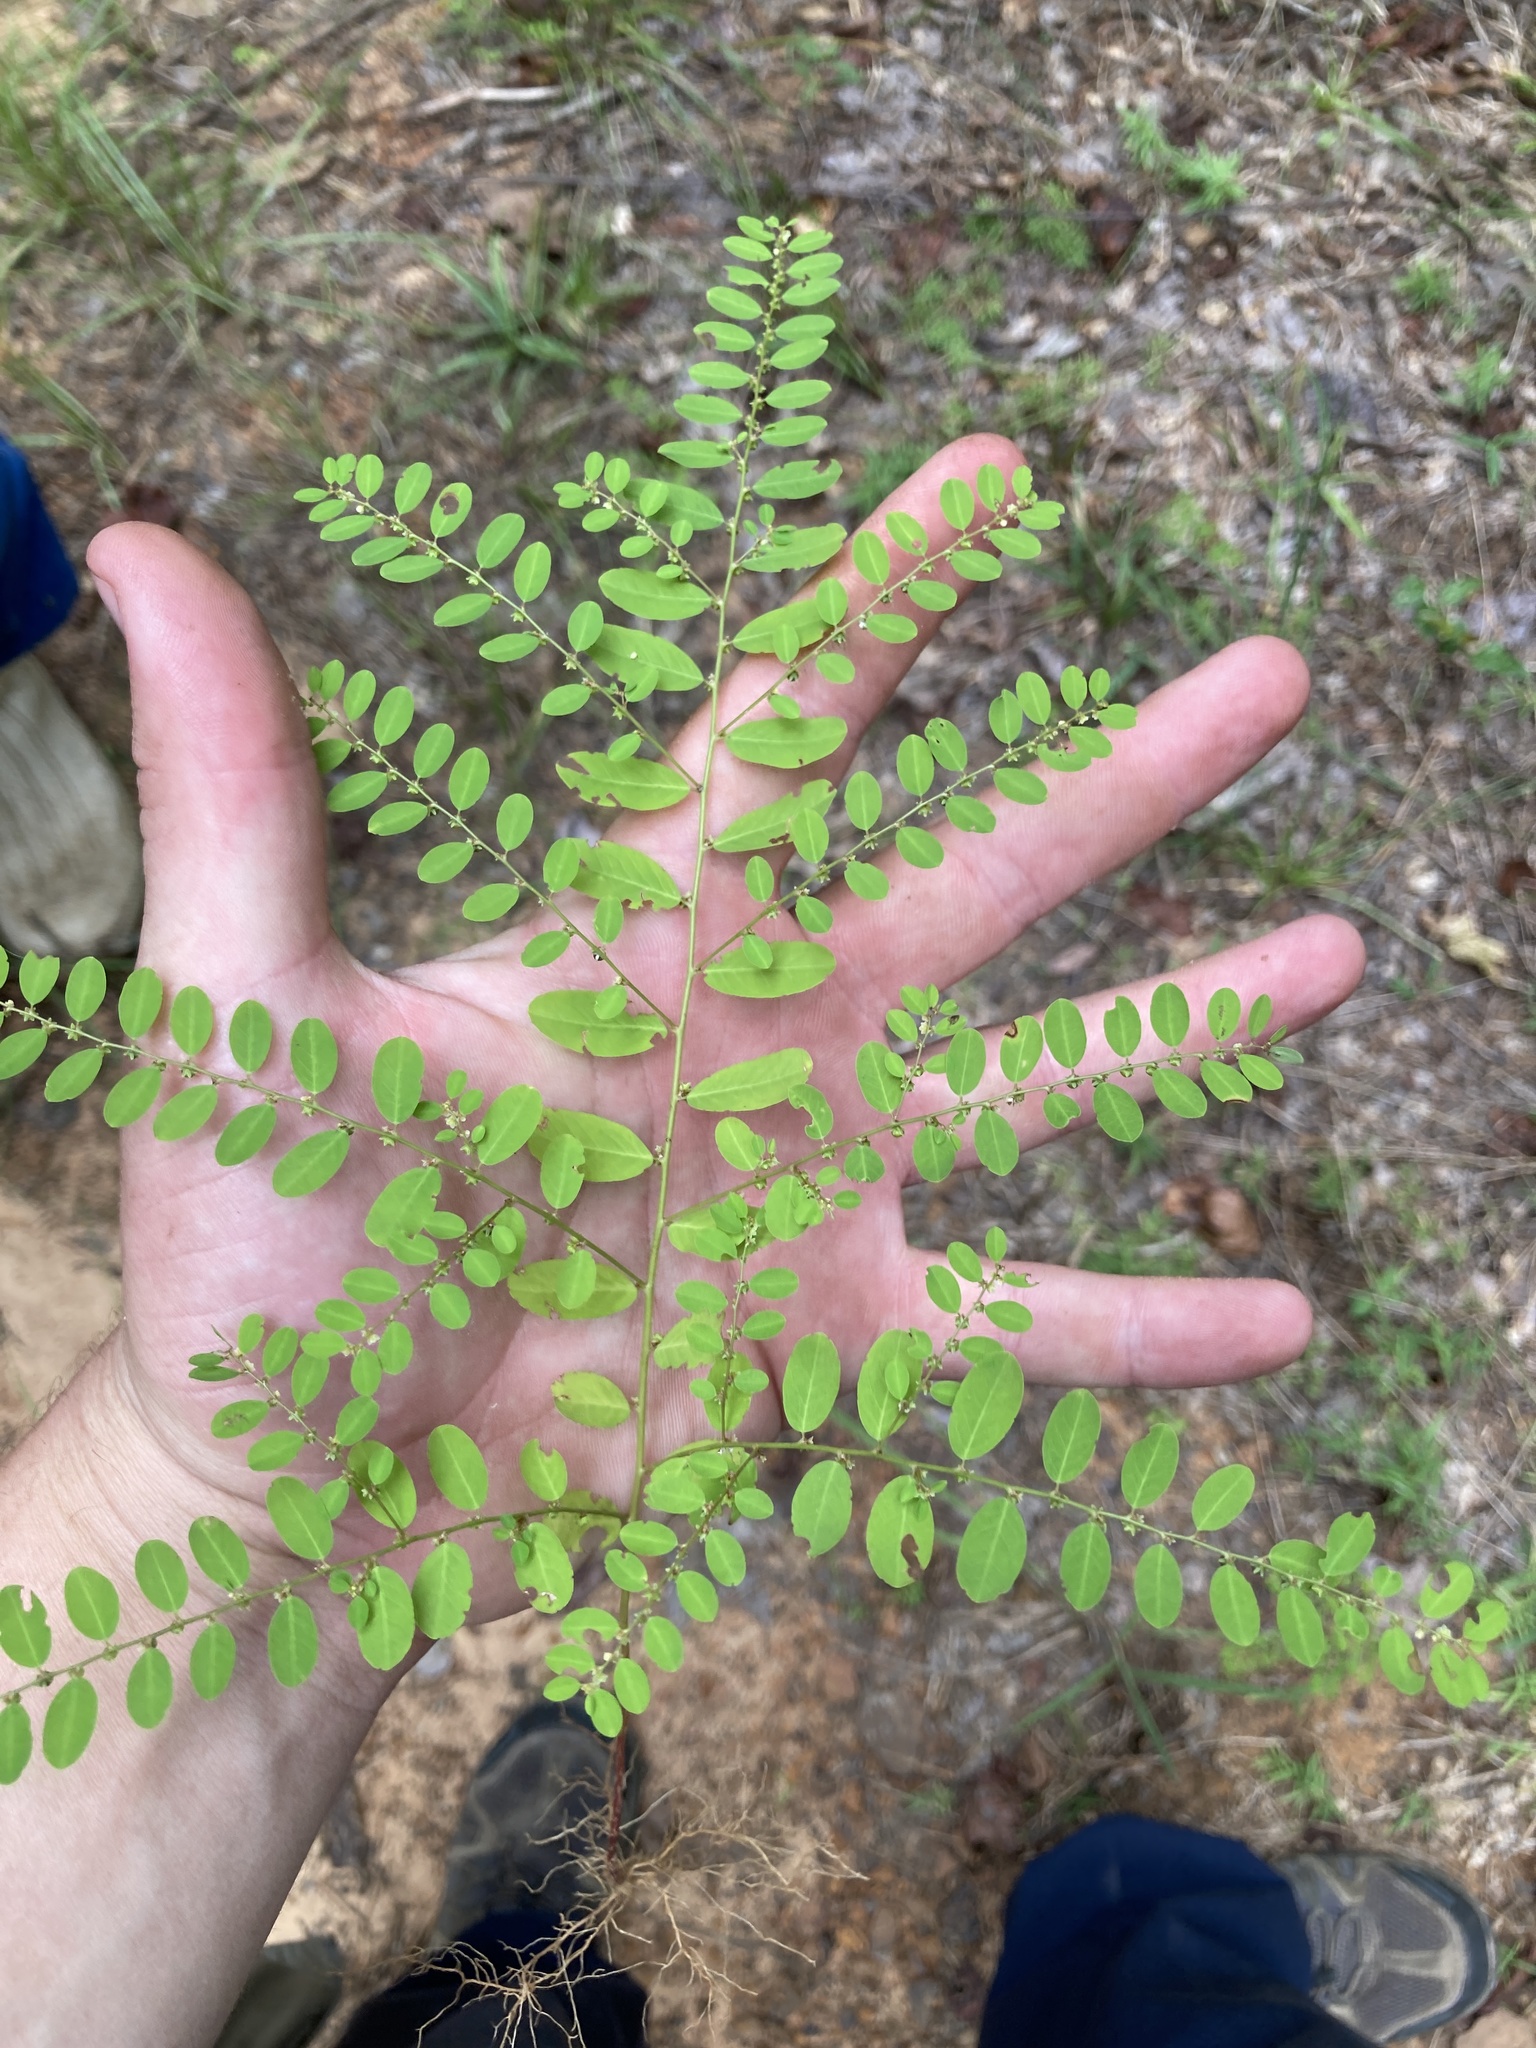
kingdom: Plantae
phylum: Tracheophyta
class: Magnoliopsida
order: Malpighiales
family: Phyllanthaceae
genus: Phyllanthus
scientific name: Phyllanthus caroliniensis
